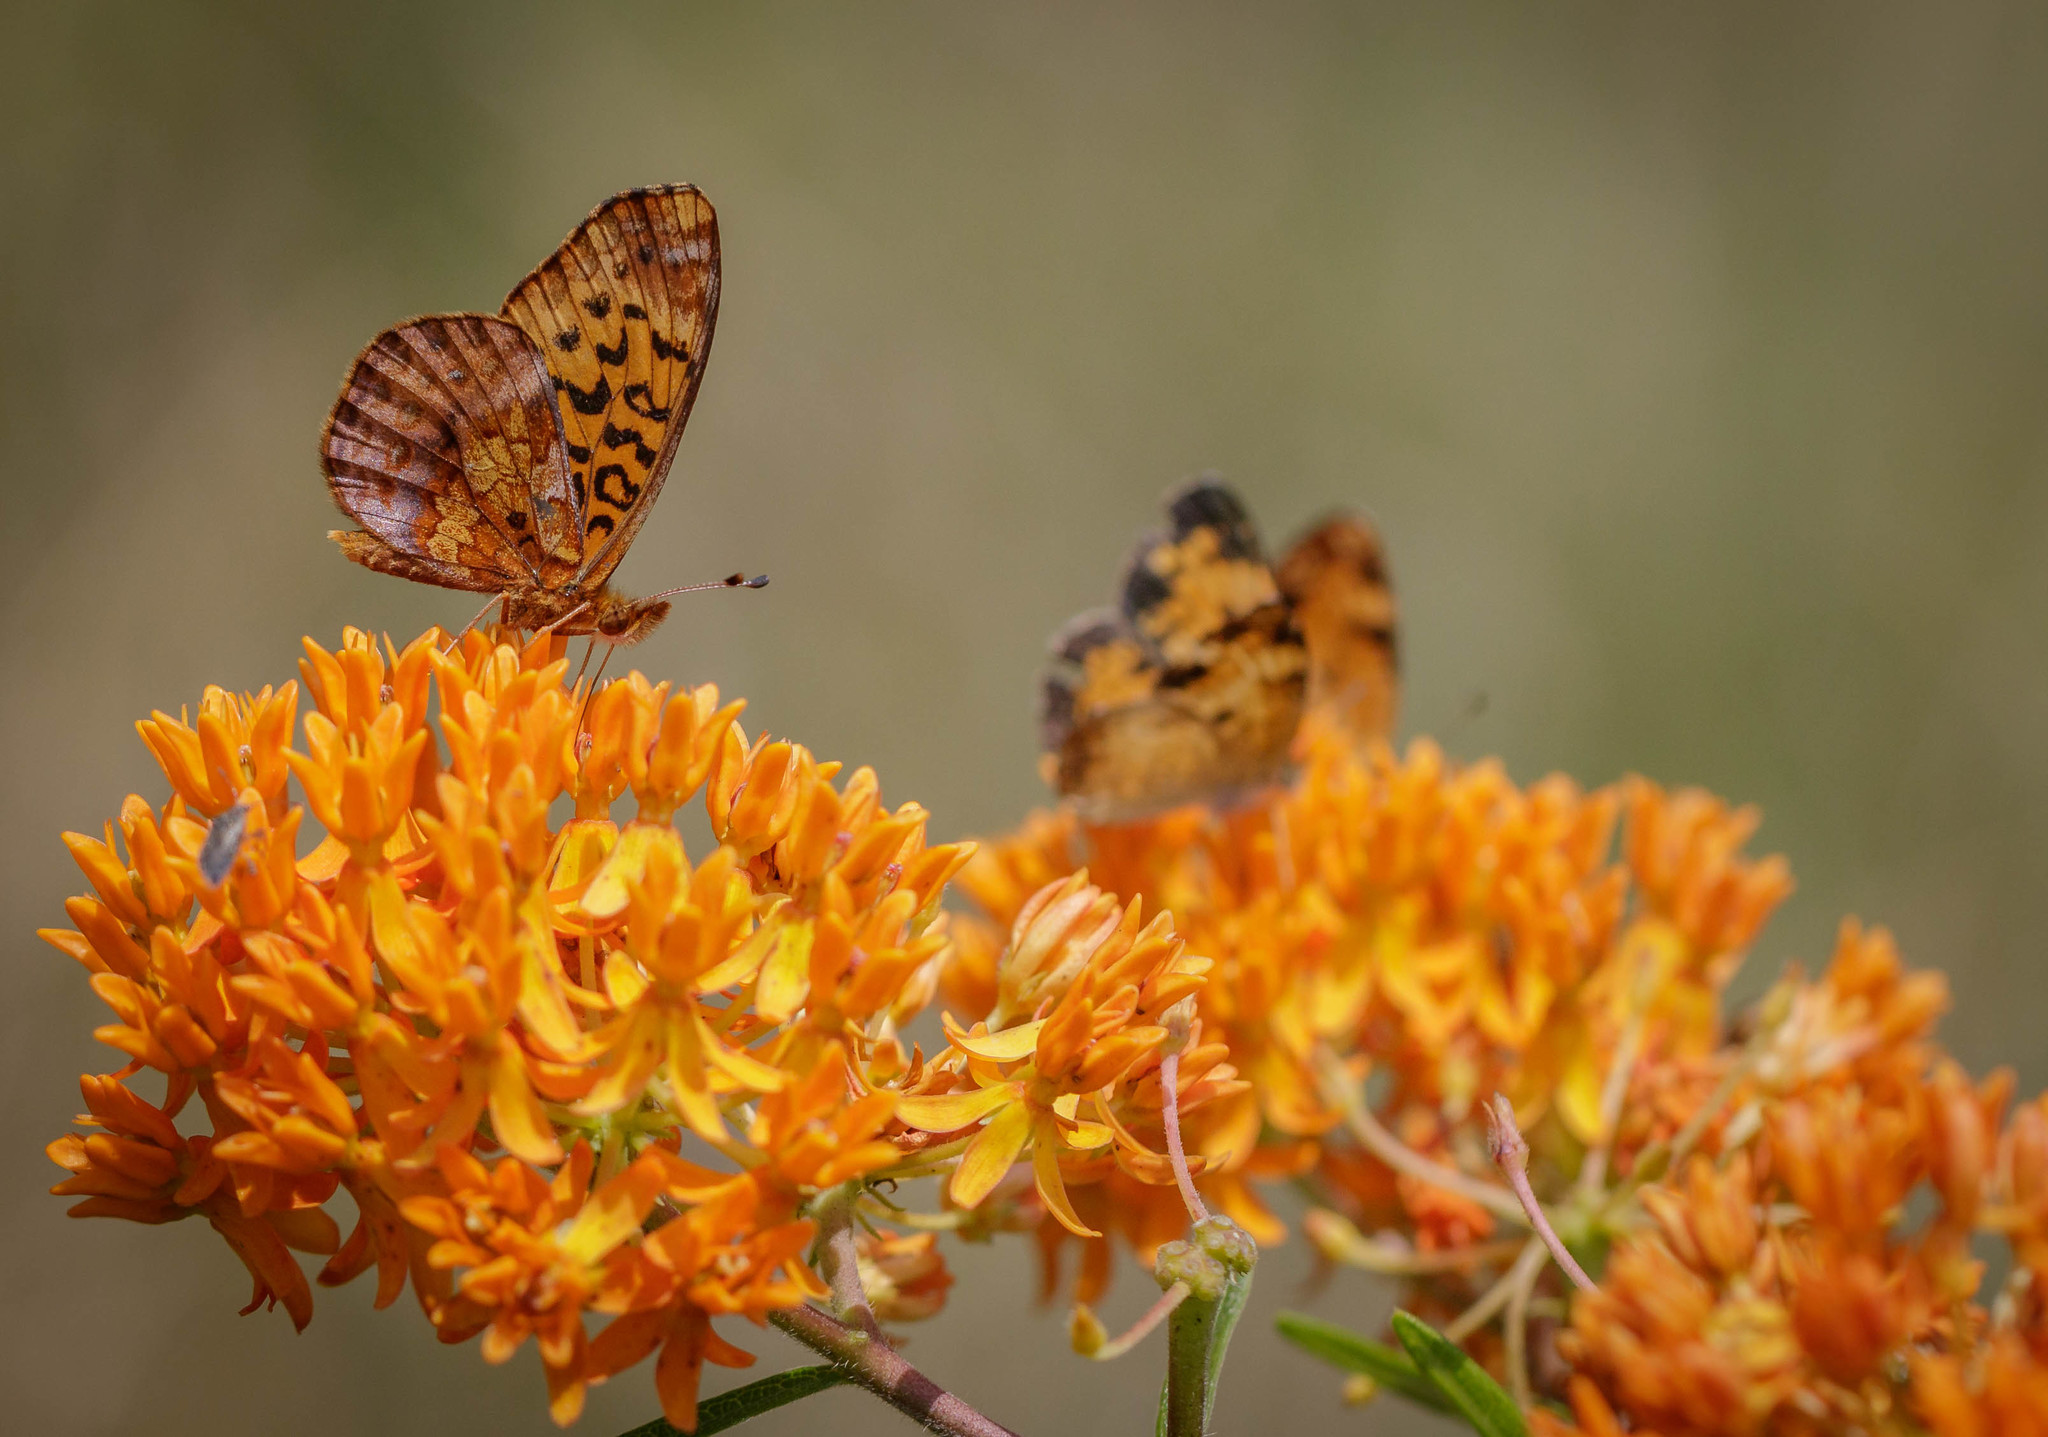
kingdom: Animalia
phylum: Arthropoda
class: Insecta
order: Lepidoptera
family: Nymphalidae
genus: Clossiana
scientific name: Clossiana toddi
